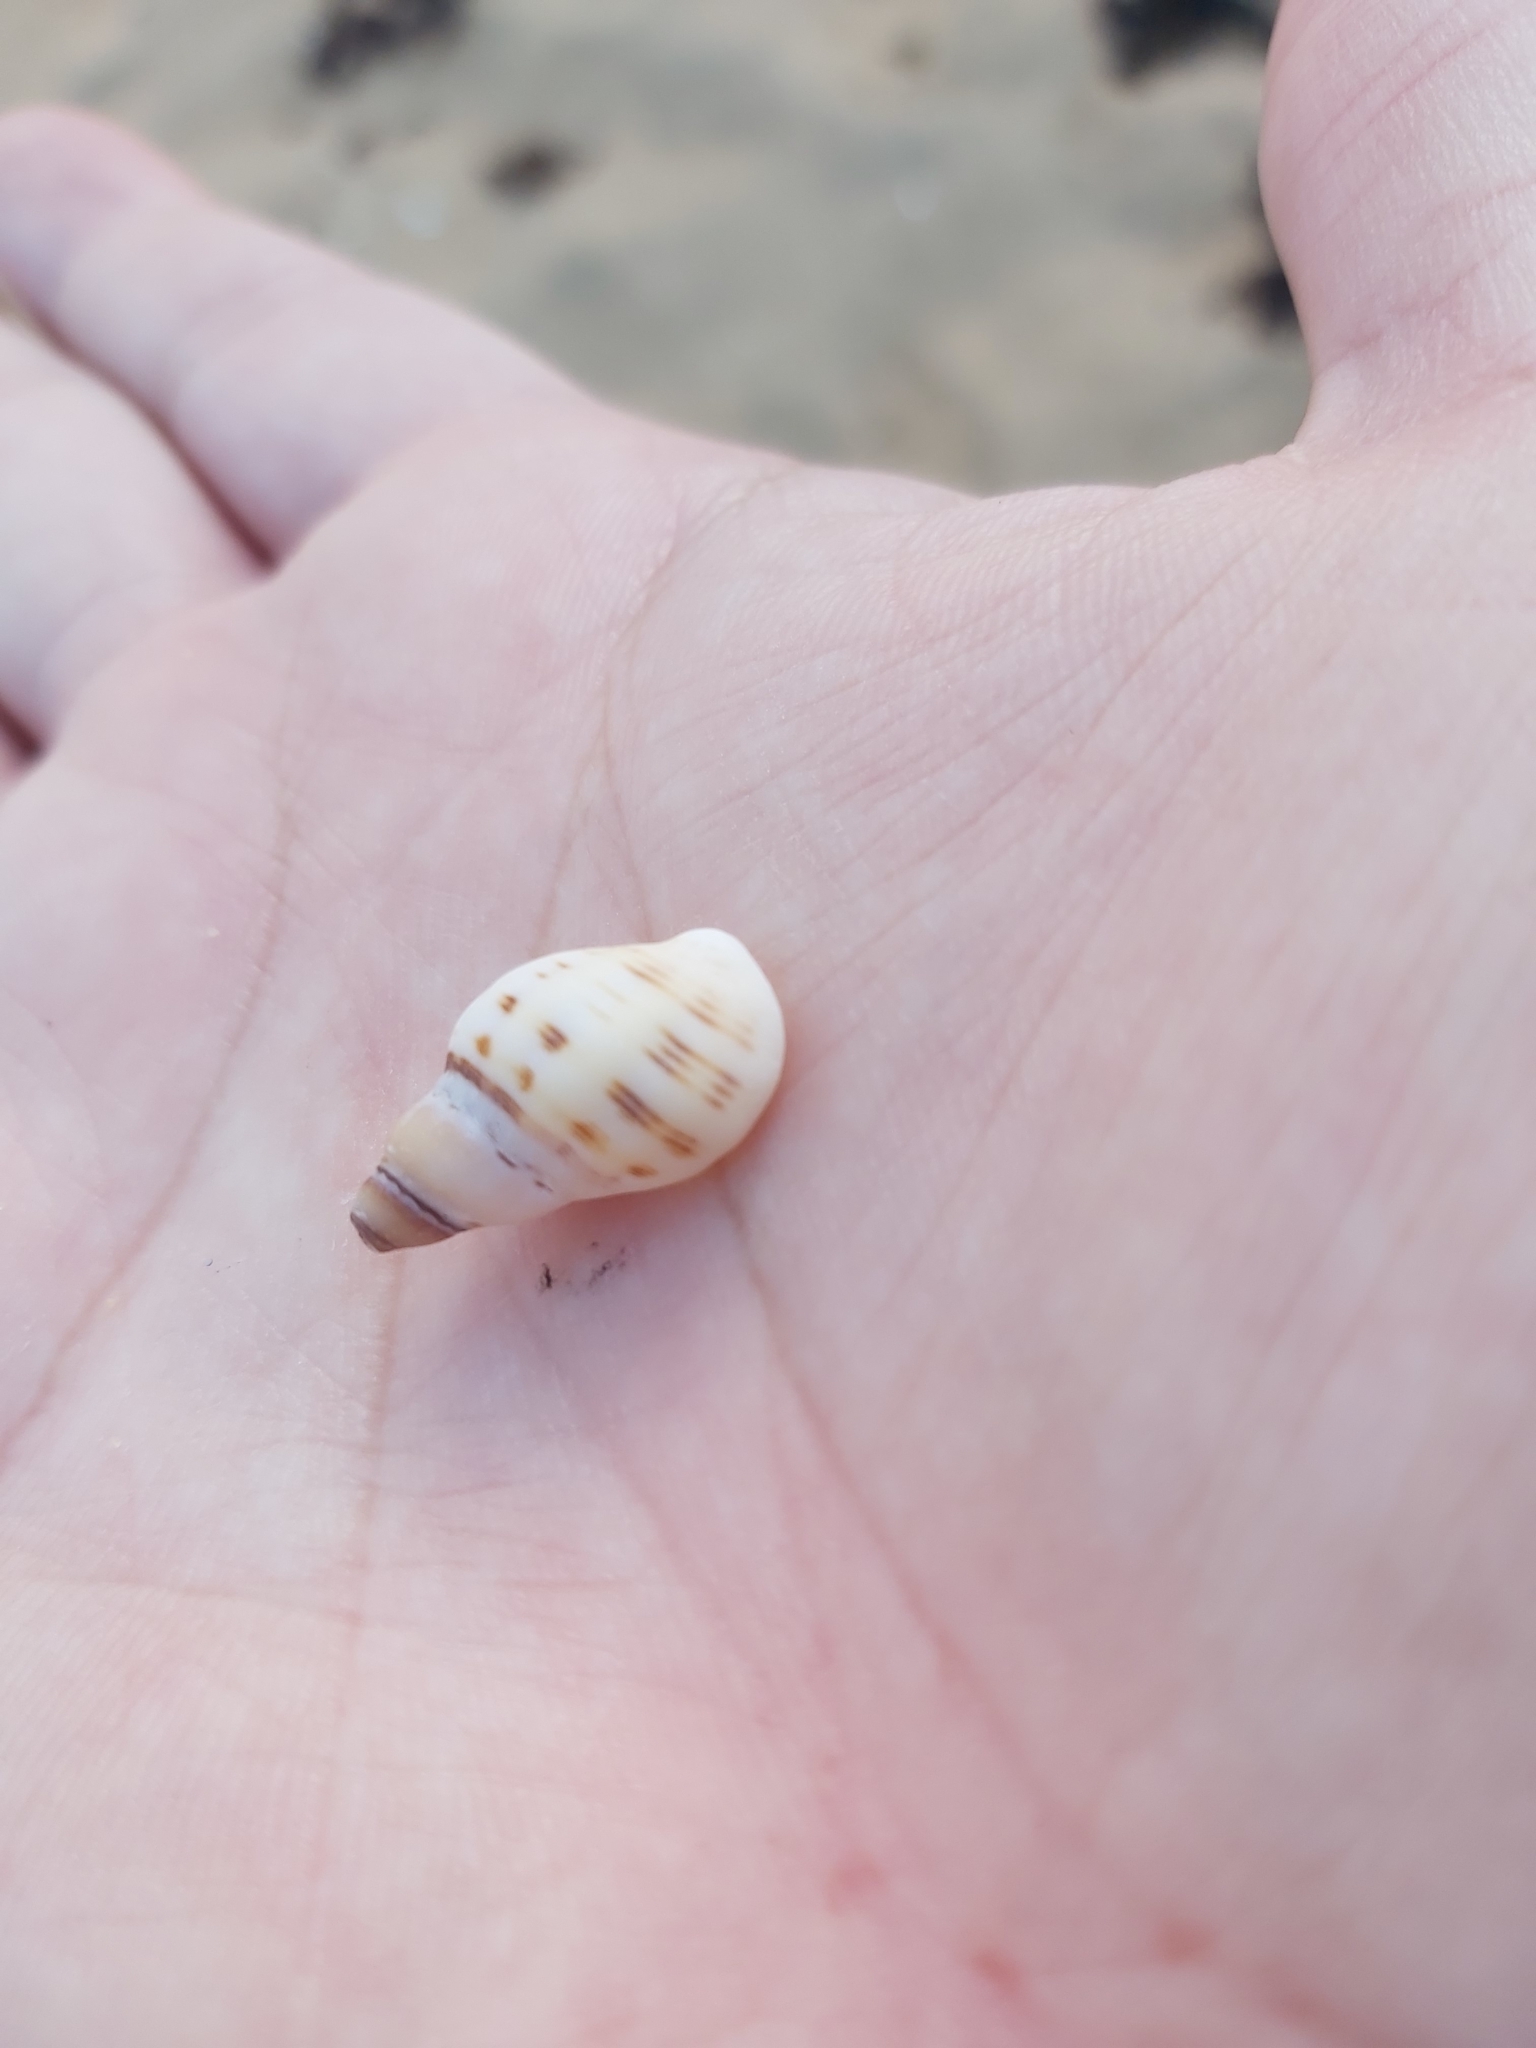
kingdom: Animalia
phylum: Mollusca
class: Gastropoda
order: Neogastropoda
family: Muricidae
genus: Agnewia
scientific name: Agnewia tritoniformis
